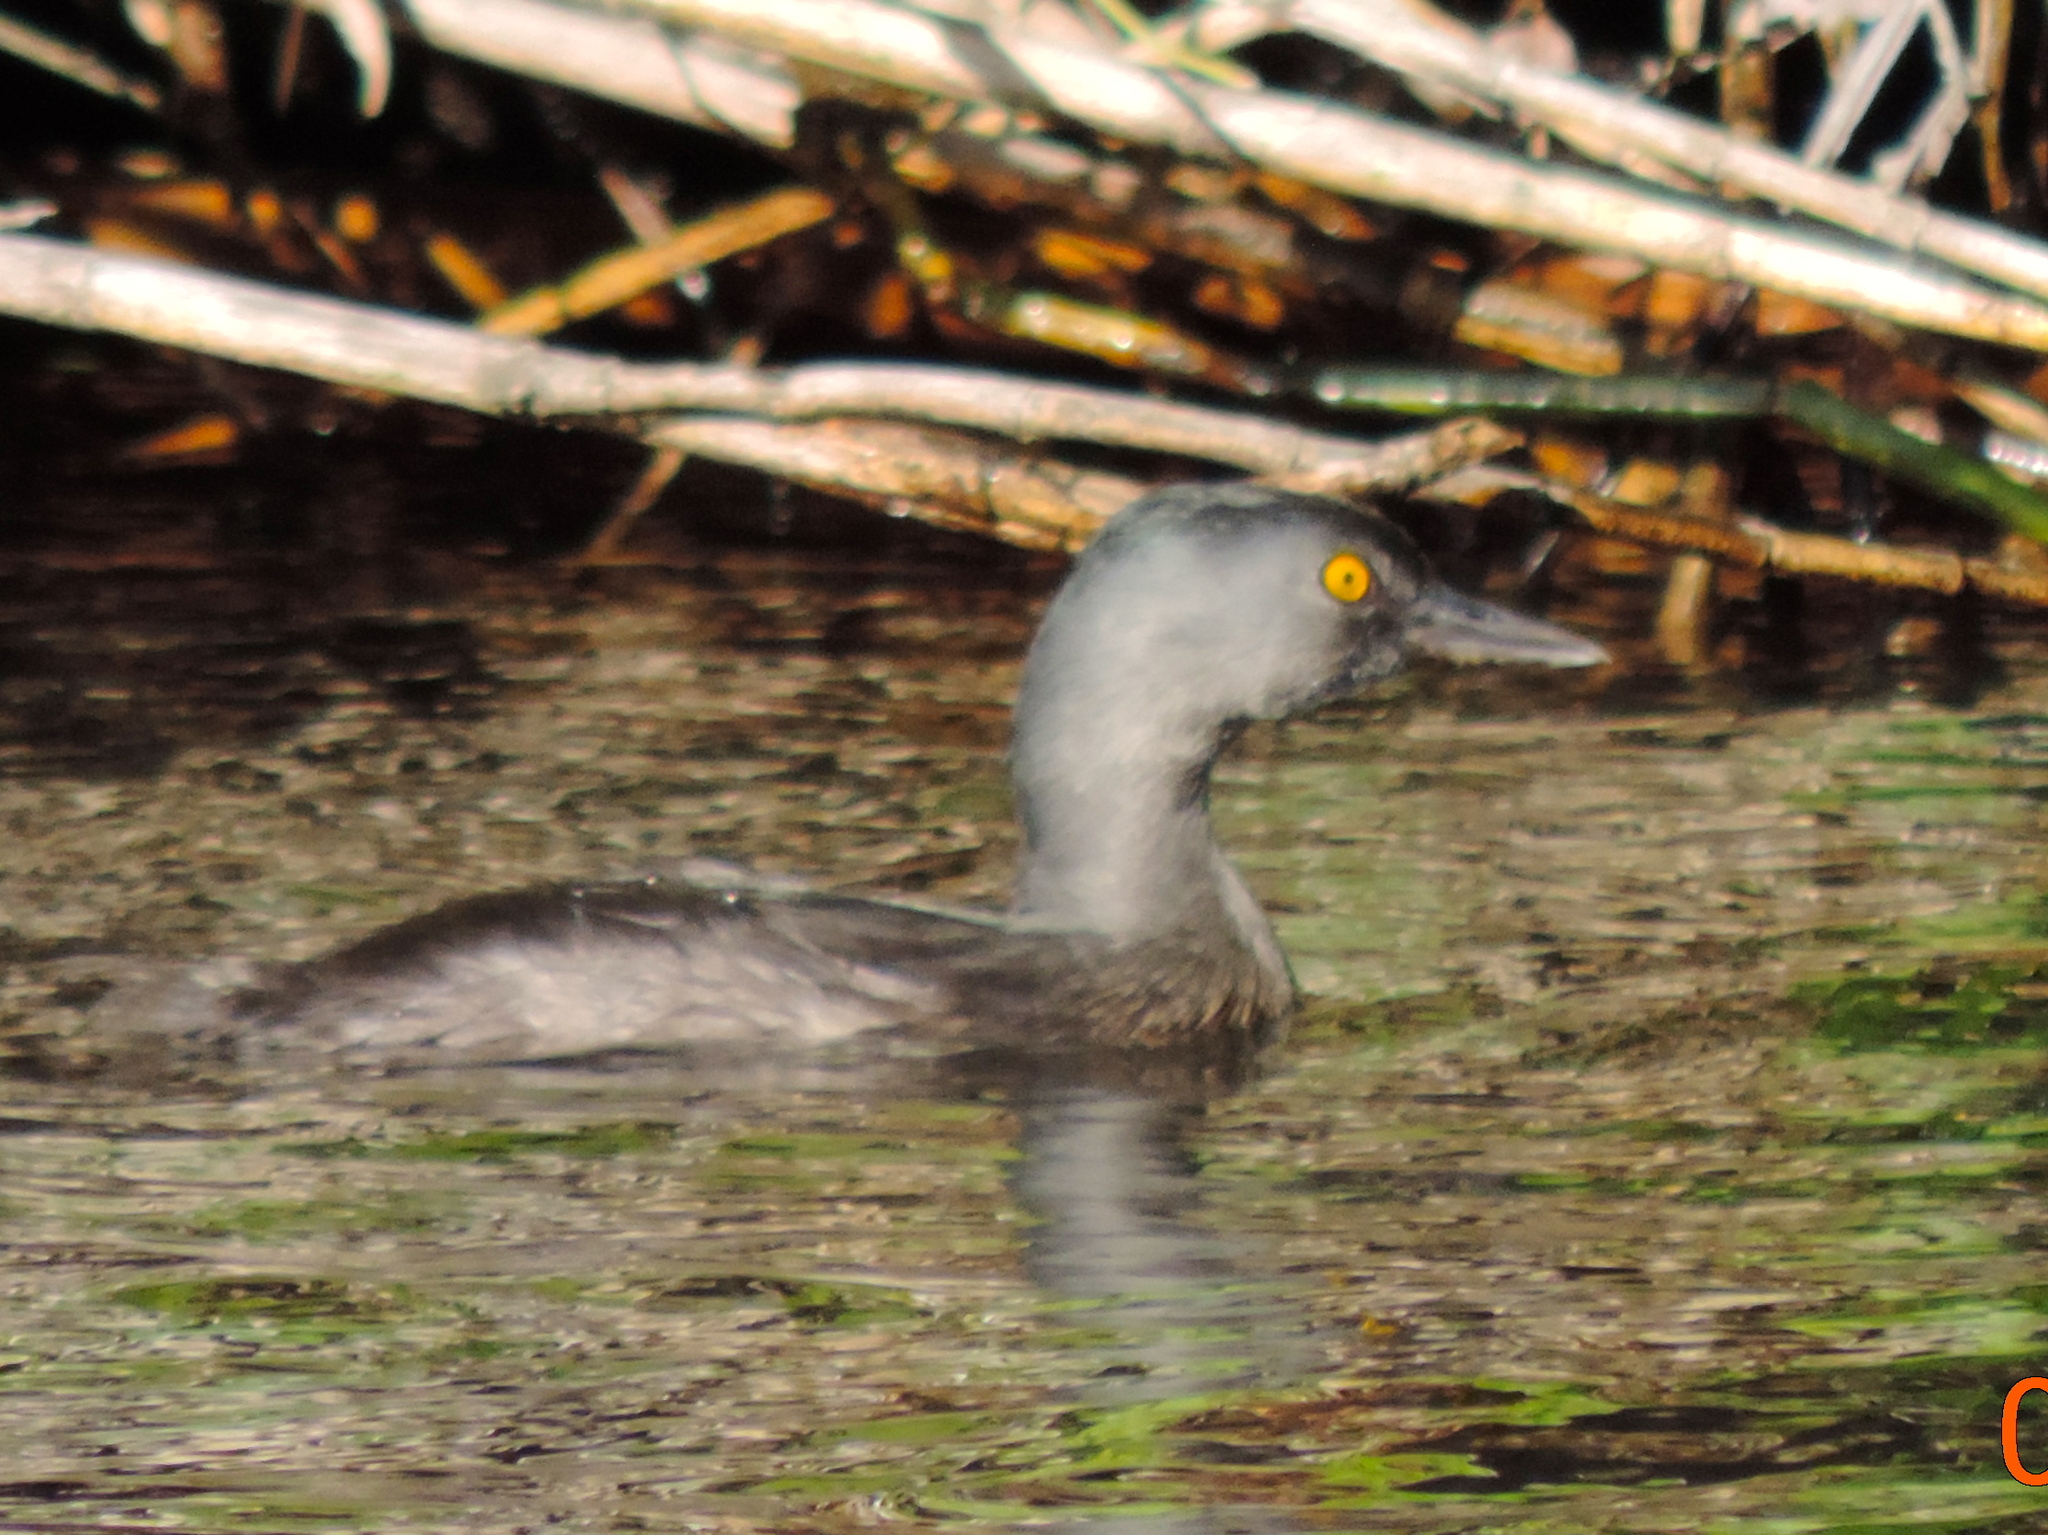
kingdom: Animalia
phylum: Chordata
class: Aves
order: Podicipediformes
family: Podicipedidae
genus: Tachybaptus
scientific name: Tachybaptus dominicus
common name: Least grebe
